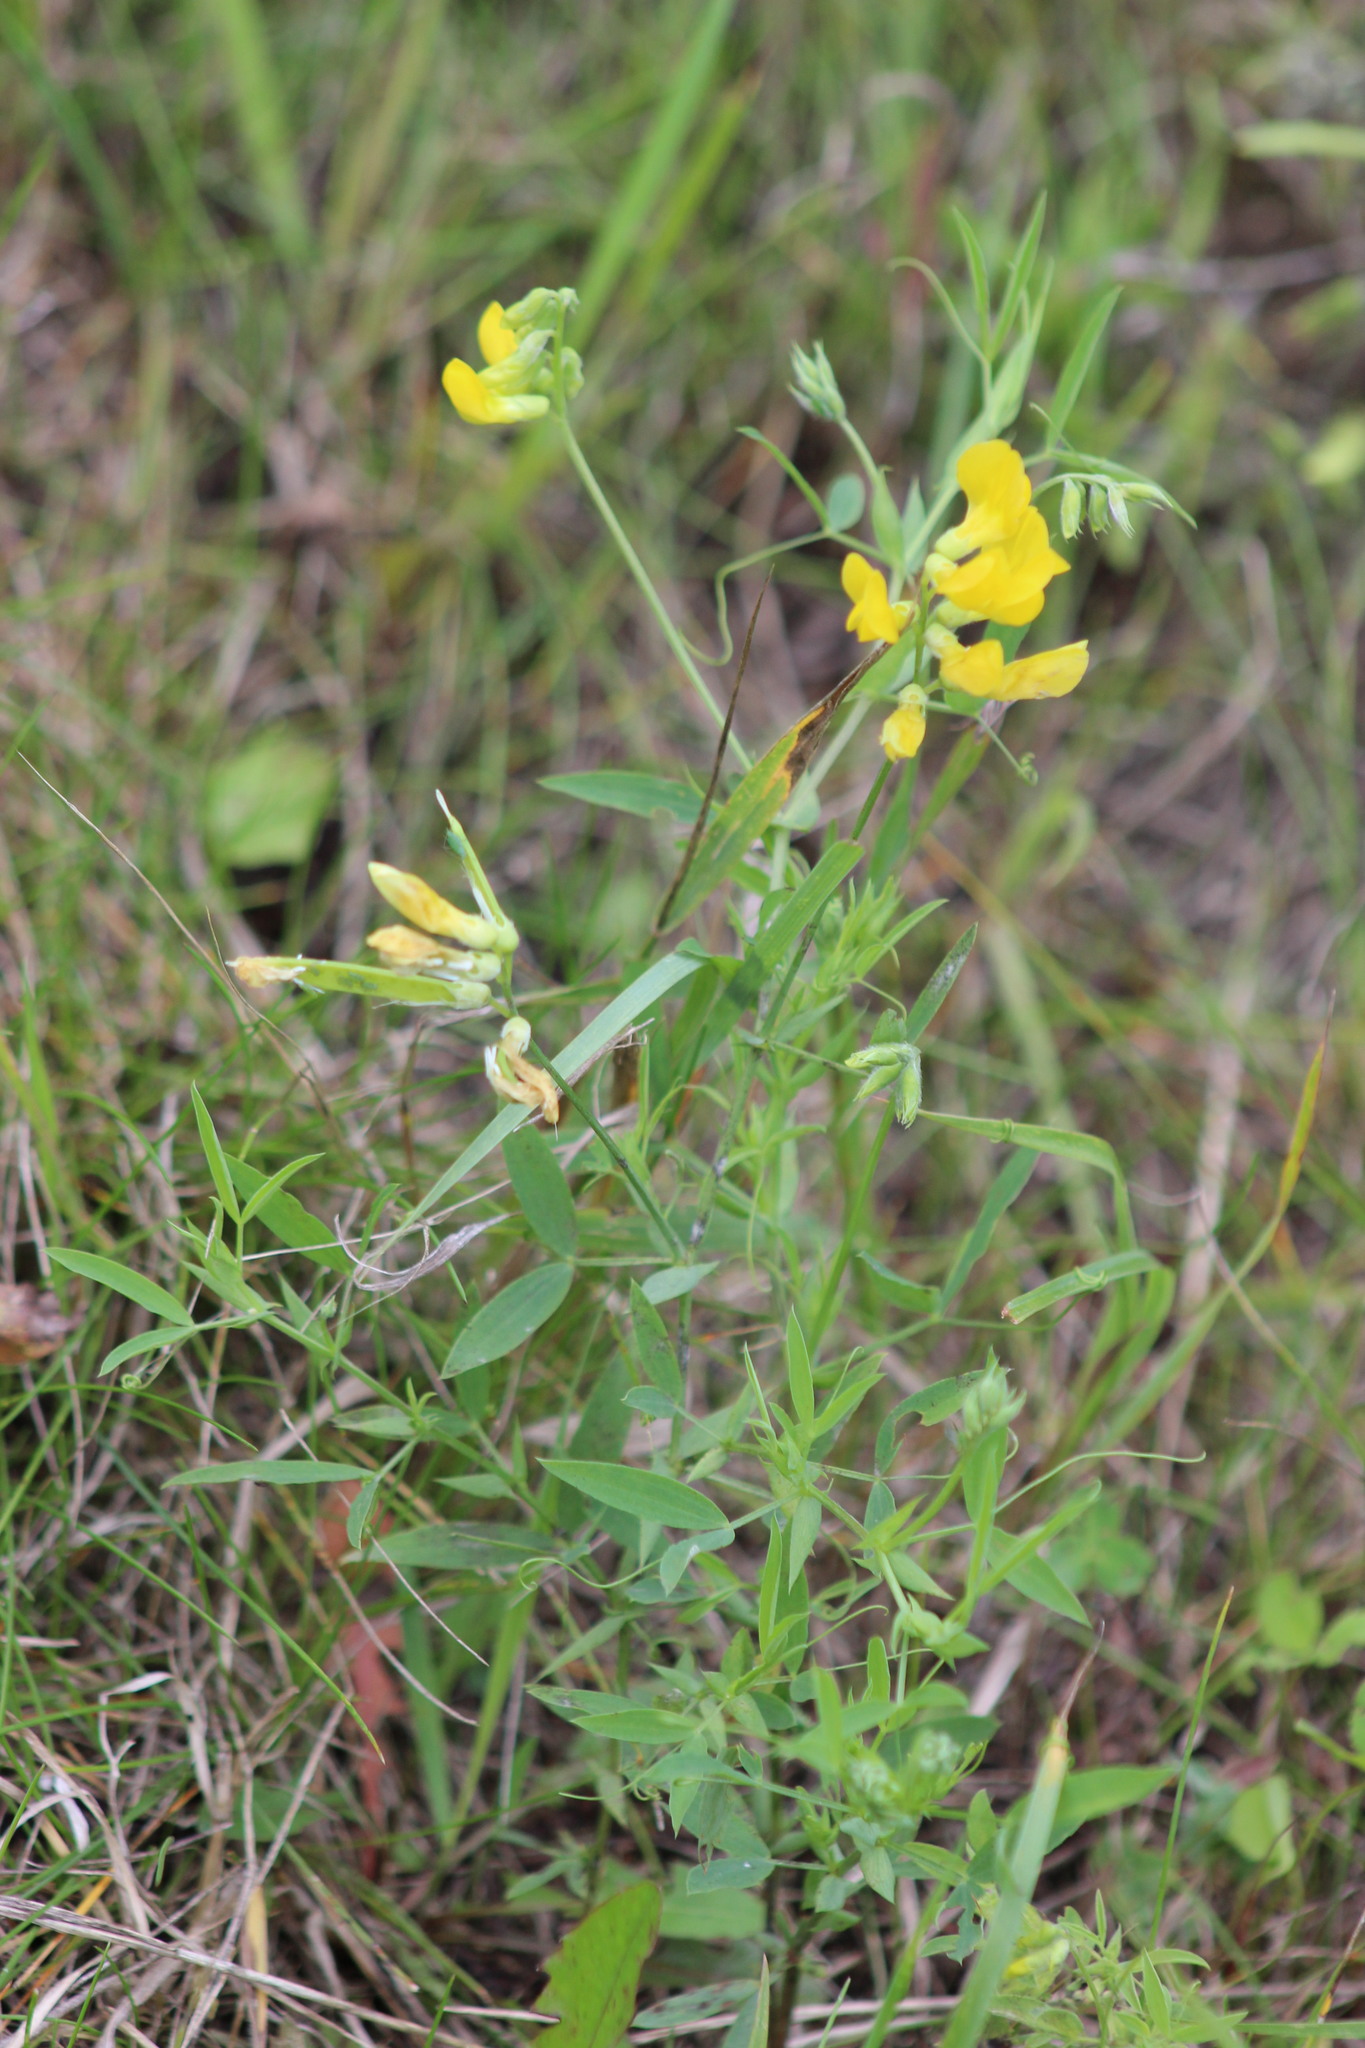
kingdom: Plantae
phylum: Tracheophyta
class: Magnoliopsida
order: Fabales
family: Fabaceae
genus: Lathyrus
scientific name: Lathyrus pratensis
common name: Meadow vetchling
